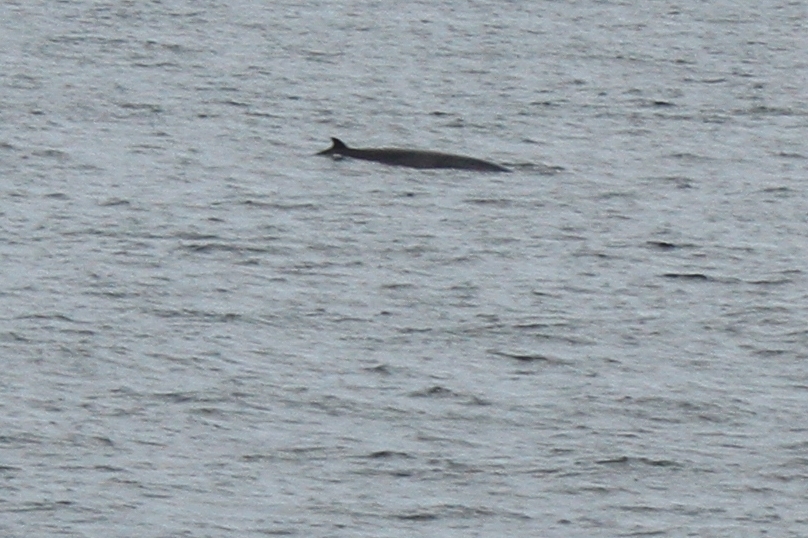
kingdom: Animalia
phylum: Chordata
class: Mammalia
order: Cetacea
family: Balaenopteridae
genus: Balaenoptera
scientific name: Balaenoptera acutorostrata
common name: Common minke whale
